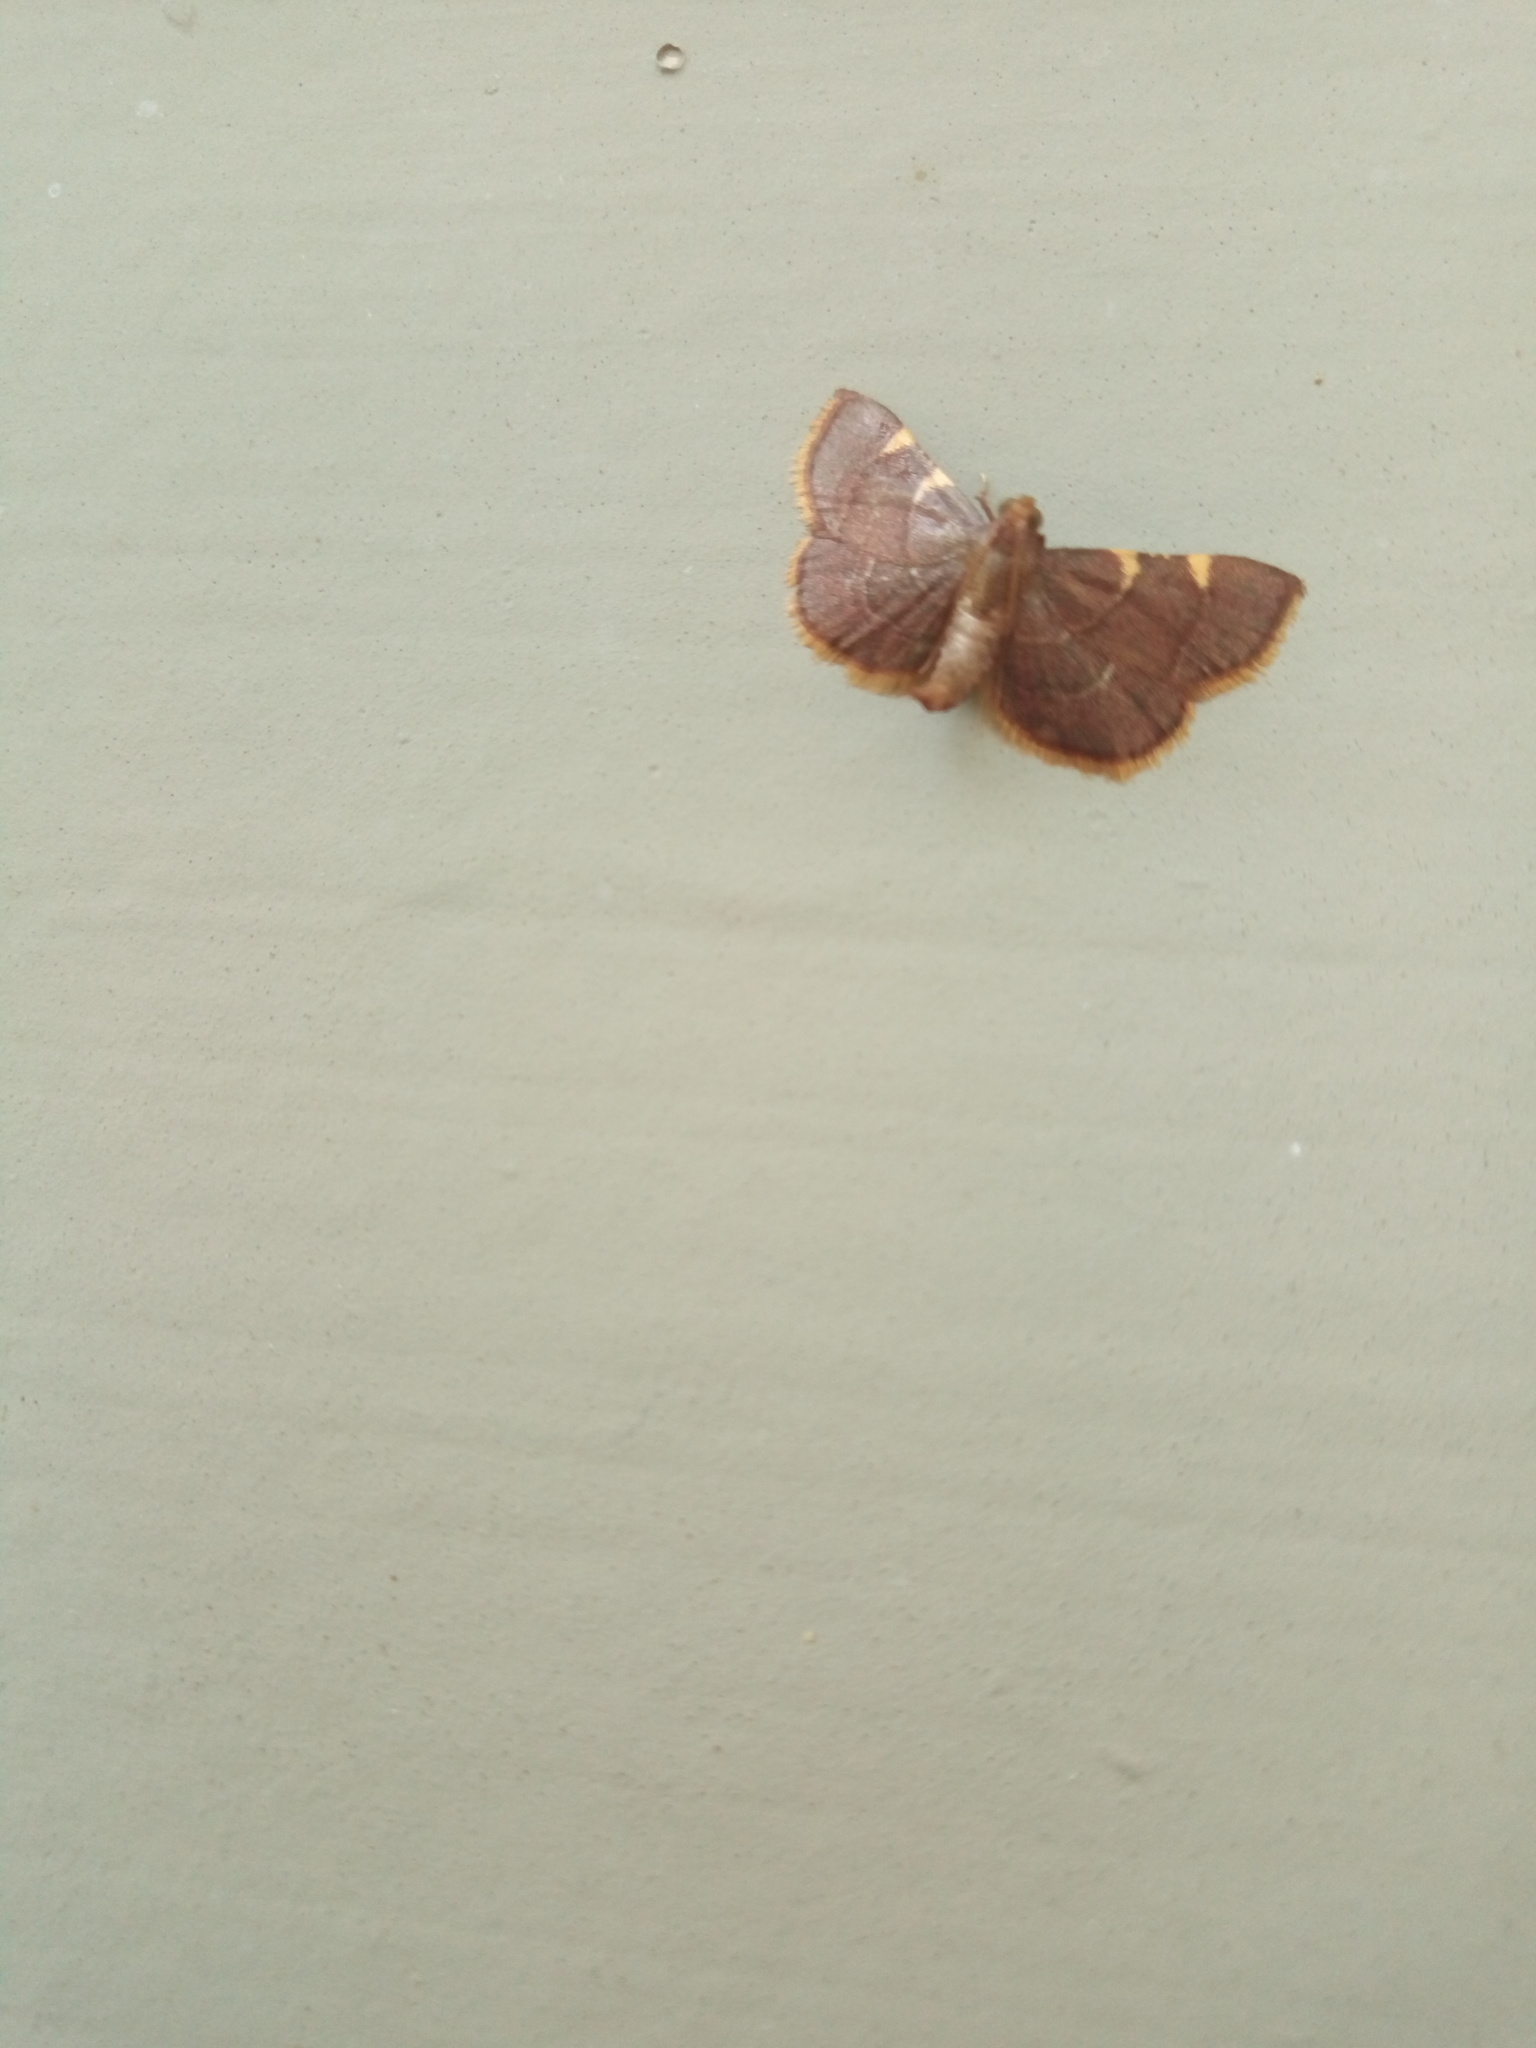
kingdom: Animalia
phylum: Arthropoda
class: Insecta
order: Lepidoptera
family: Pyralidae
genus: Hypsopygia
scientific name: Hypsopygia olinalis
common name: Yellow-fringed dolichomia moth
